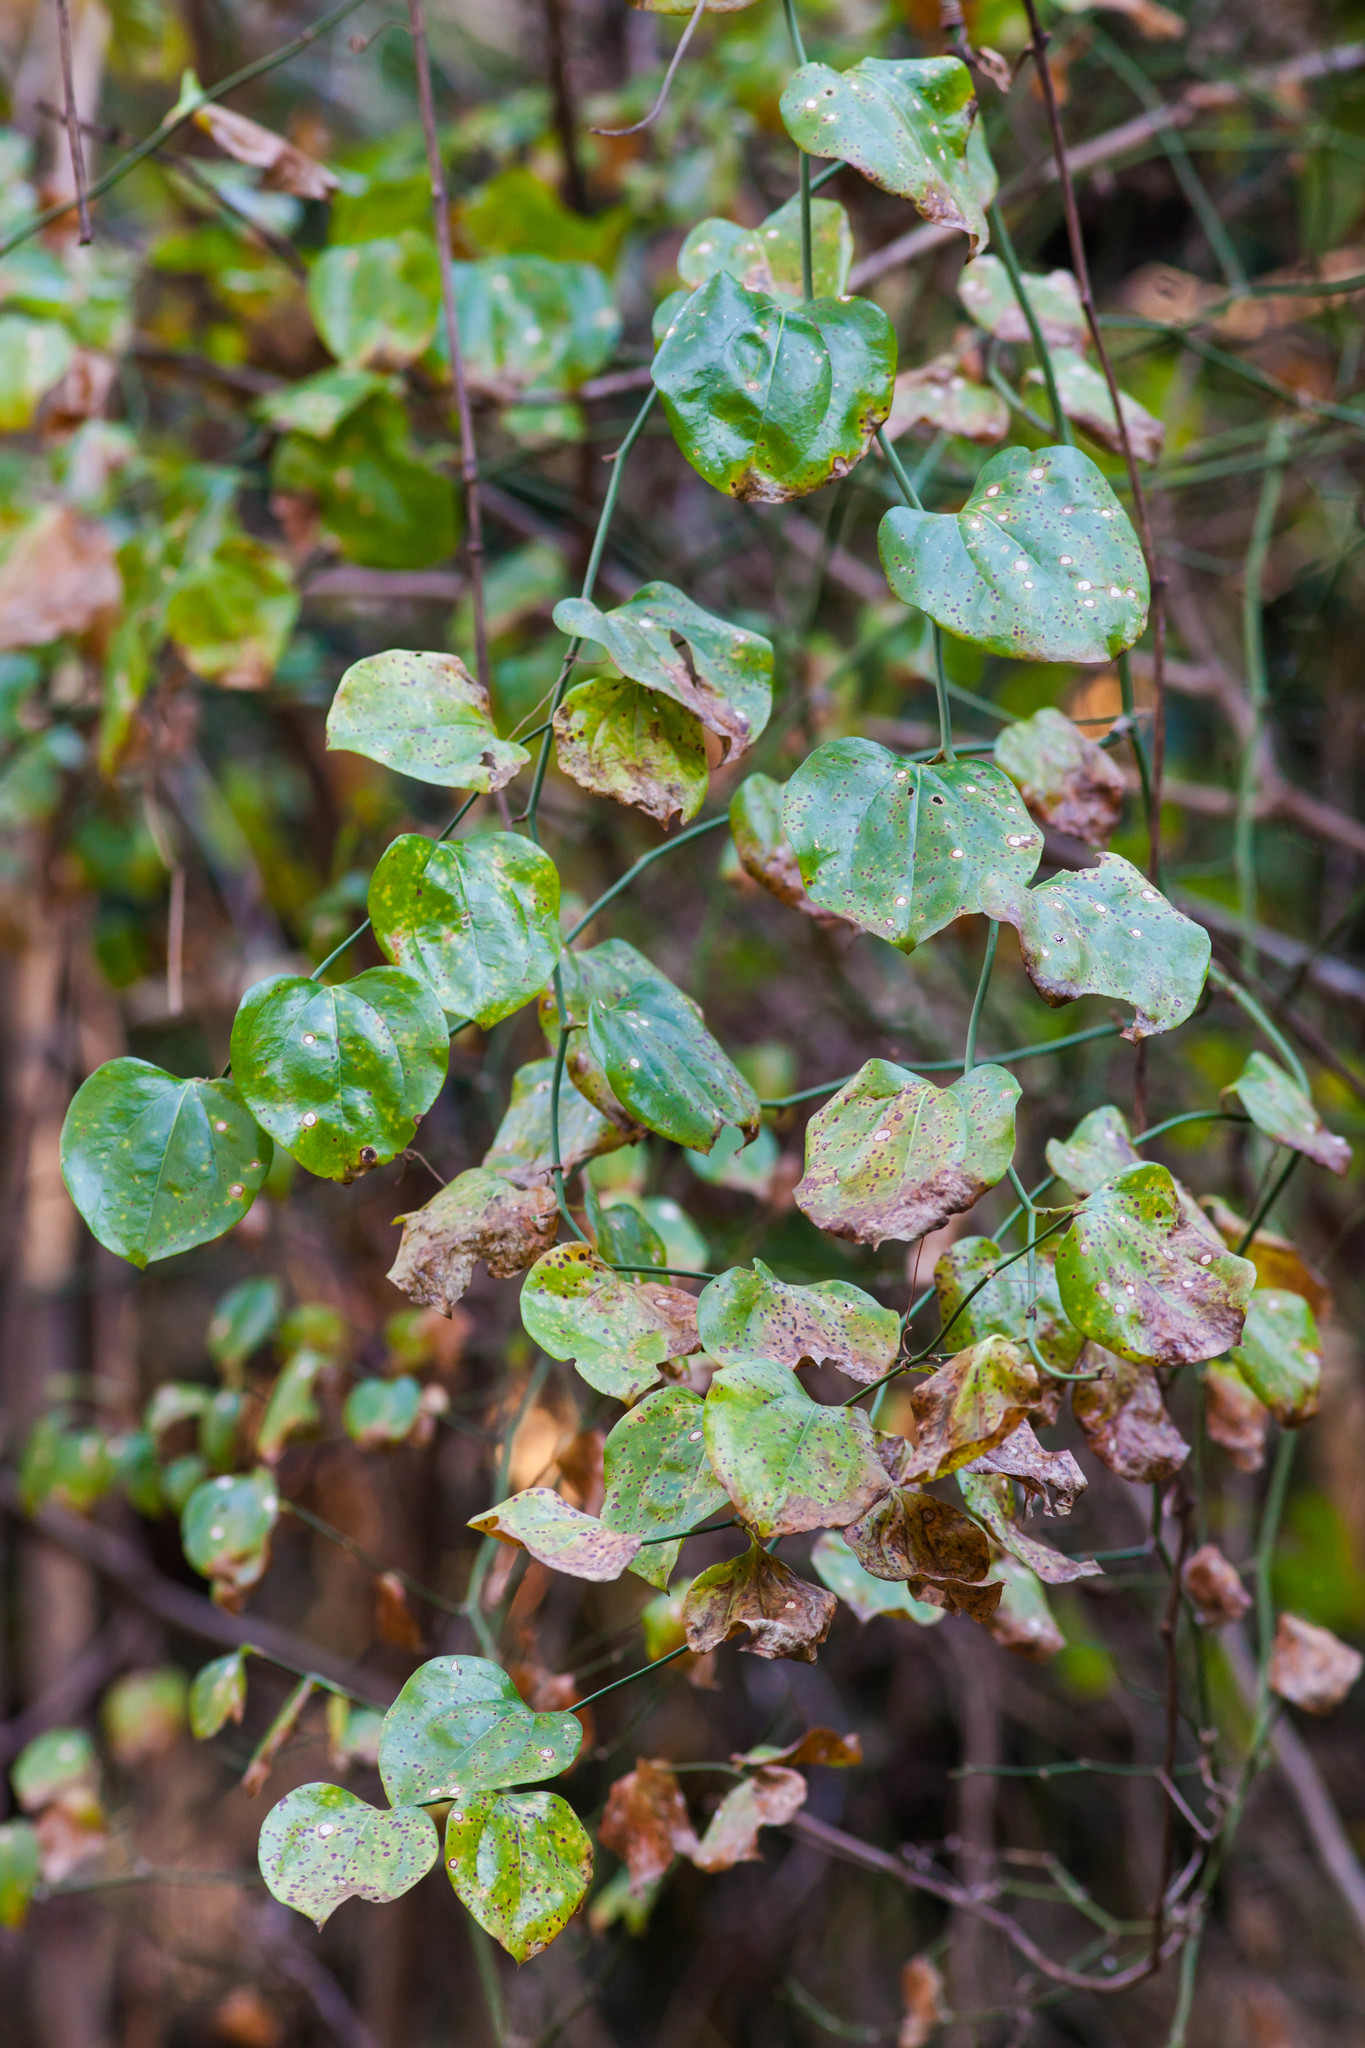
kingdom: Plantae
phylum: Tracheophyta
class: Liliopsida
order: Liliales
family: Smilacaceae
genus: Smilax
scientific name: Smilax rotundifolia
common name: Bullbriar
